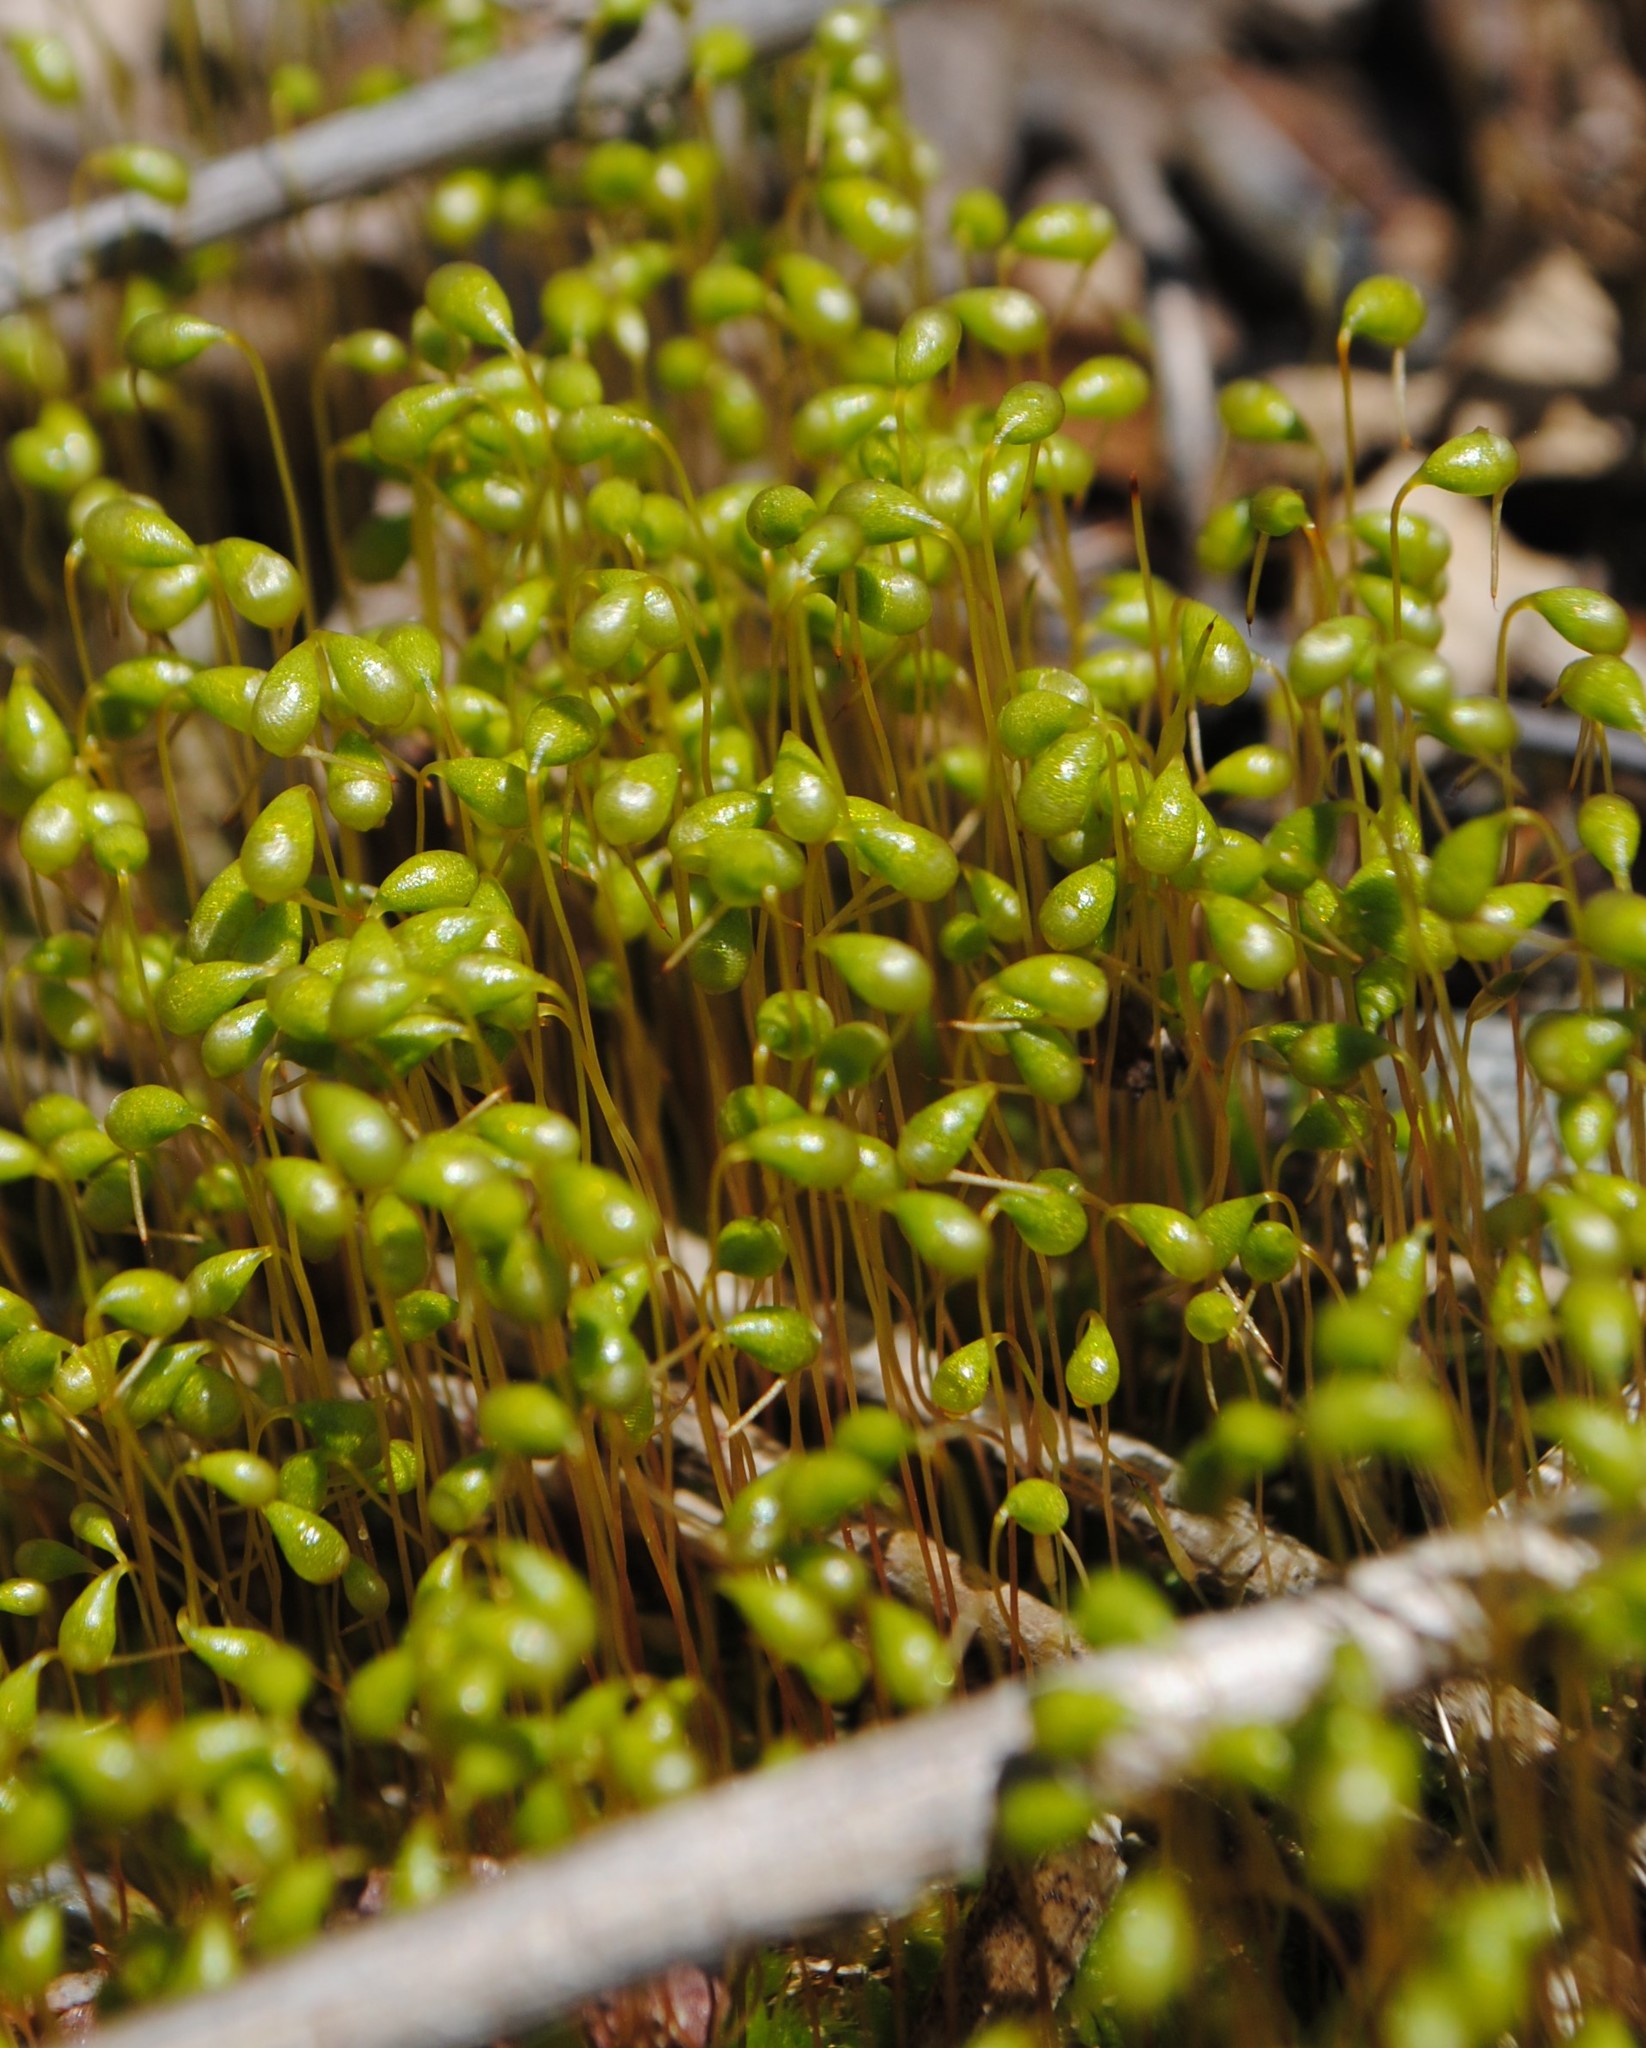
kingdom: Plantae
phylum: Bryophyta
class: Bryopsida
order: Funariales
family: Funariaceae
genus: Entosthodon
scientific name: Entosthodon americanus
